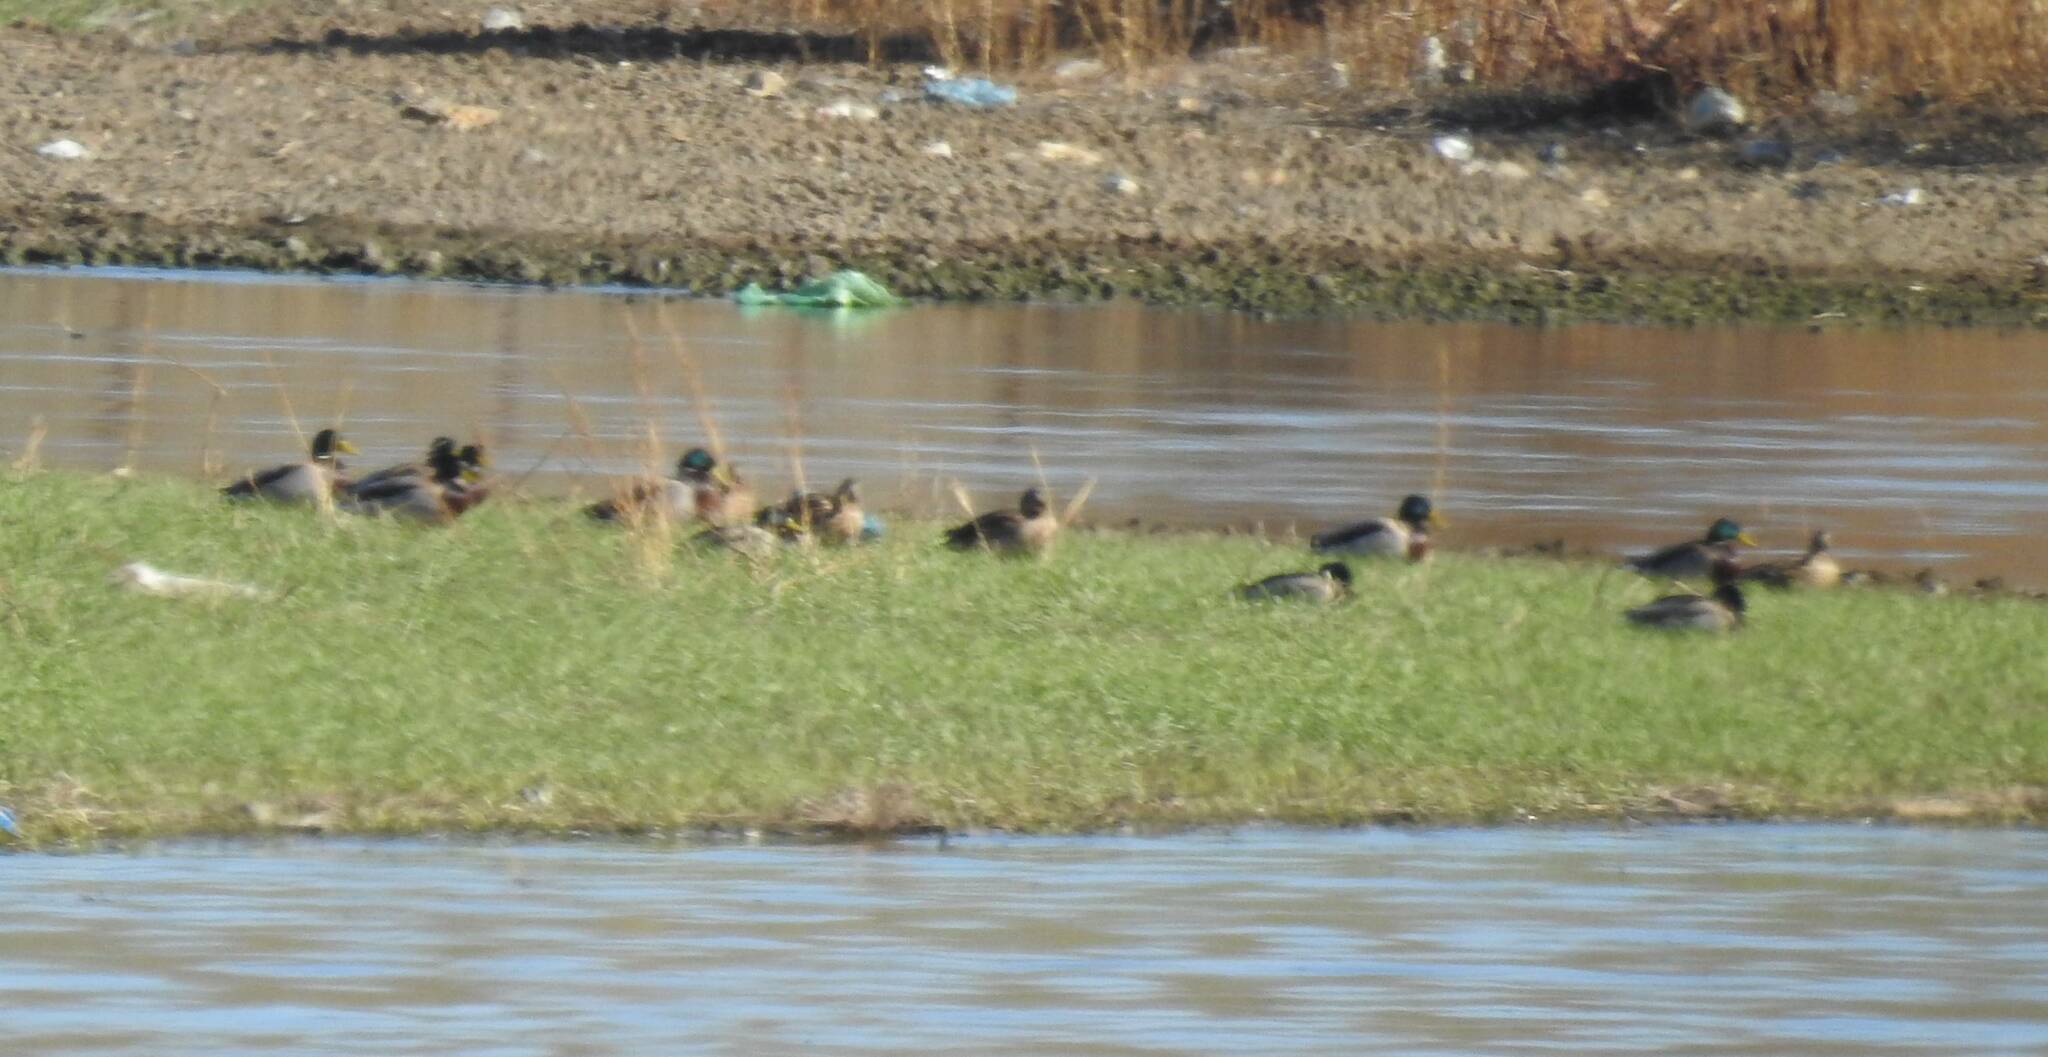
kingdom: Animalia
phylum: Chordata
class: Aves
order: Anseriformes
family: Anatidae
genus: Anas
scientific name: Anas platyrhynchos
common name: Mallard
